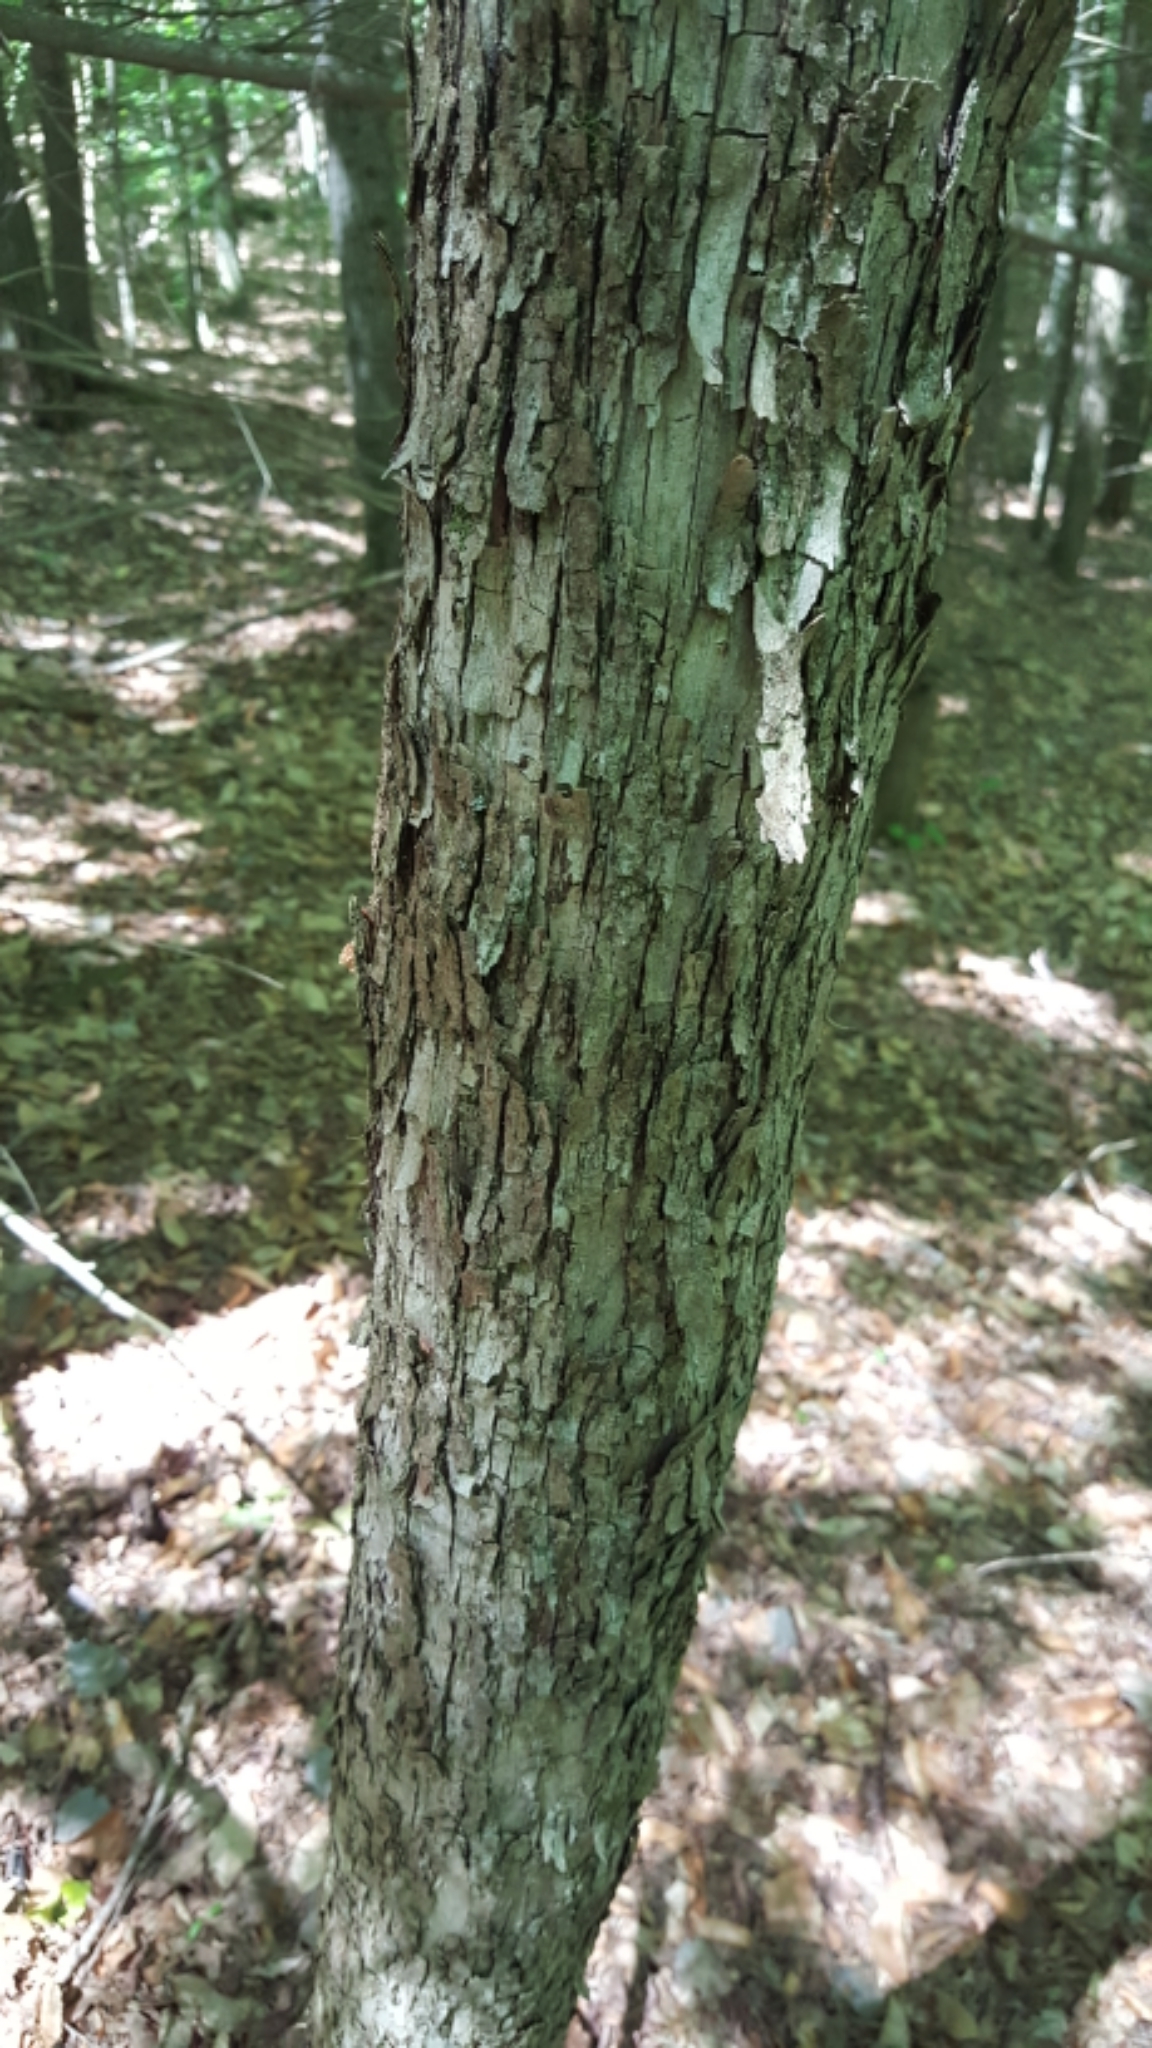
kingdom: Plantae
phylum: Tracheophyta
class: Magnoliopsida
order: Fagales
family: Betulaceae
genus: Ostrya
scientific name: Ostrya virginiana
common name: Ironwood
